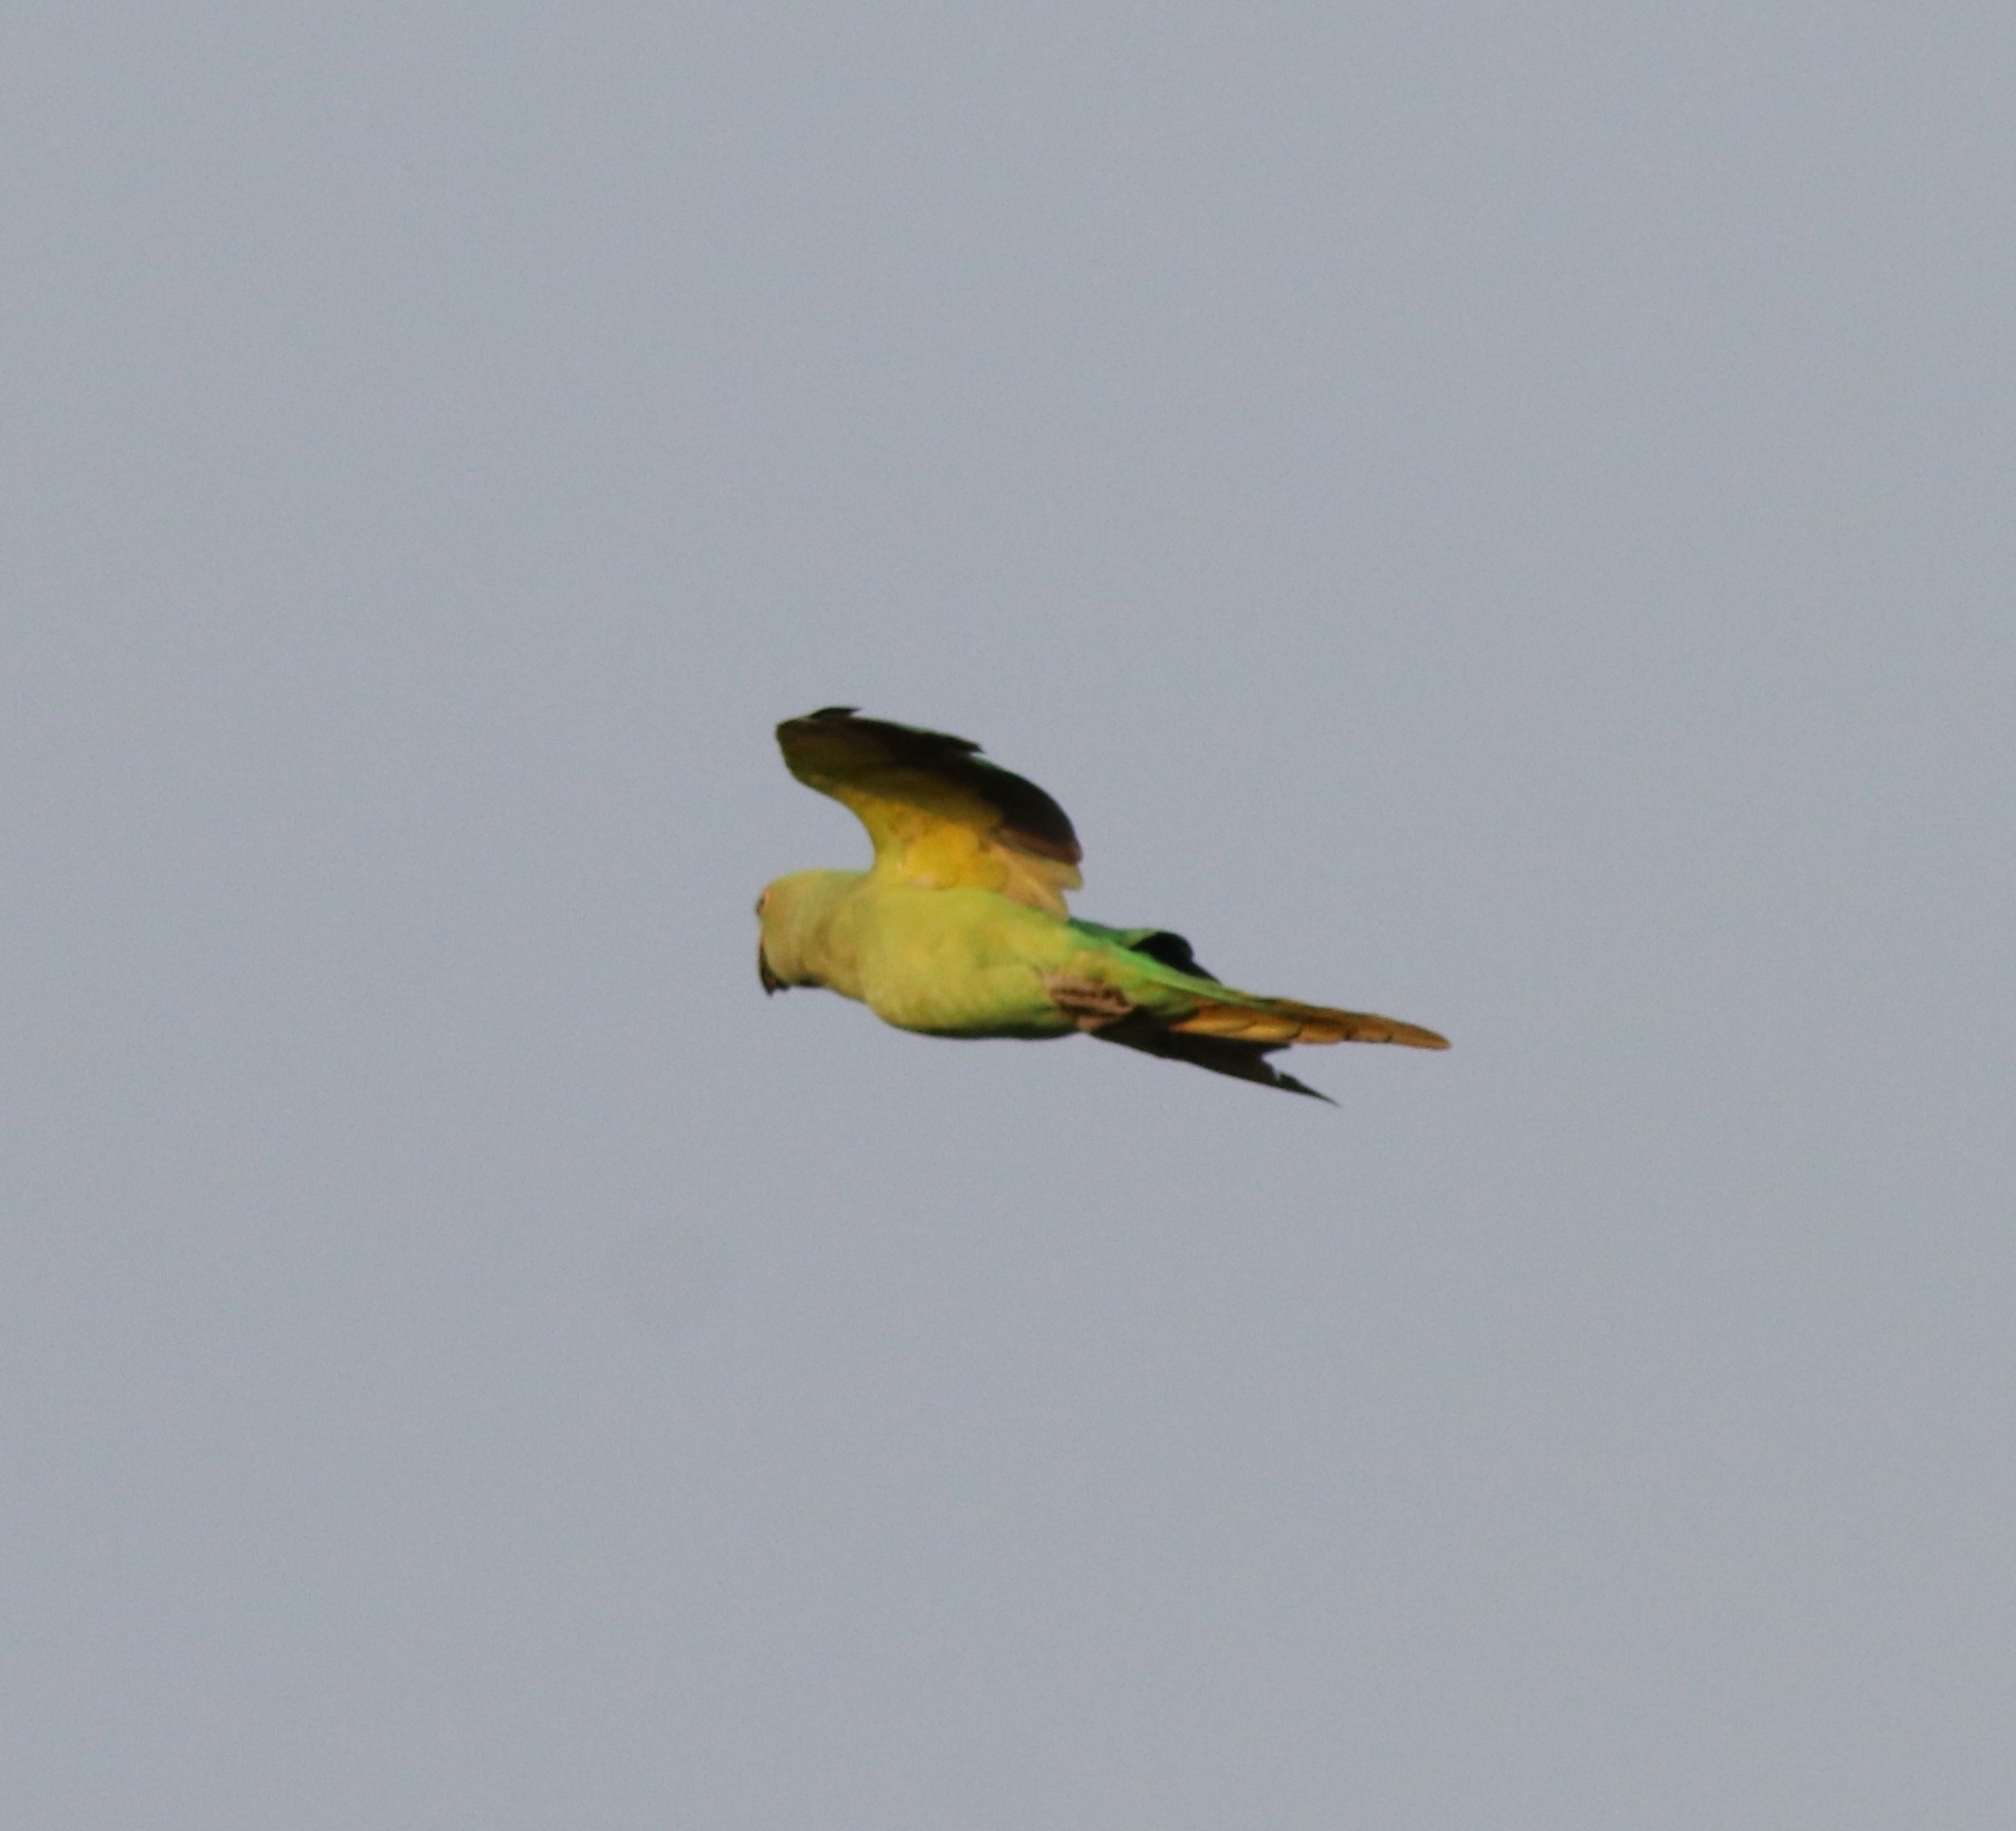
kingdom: Animalia
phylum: Chordata
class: Aves
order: Psittaciformes
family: Psittacidae
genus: Psittacula
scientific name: Psittacula krameri
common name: Rose-ringed parakeet
